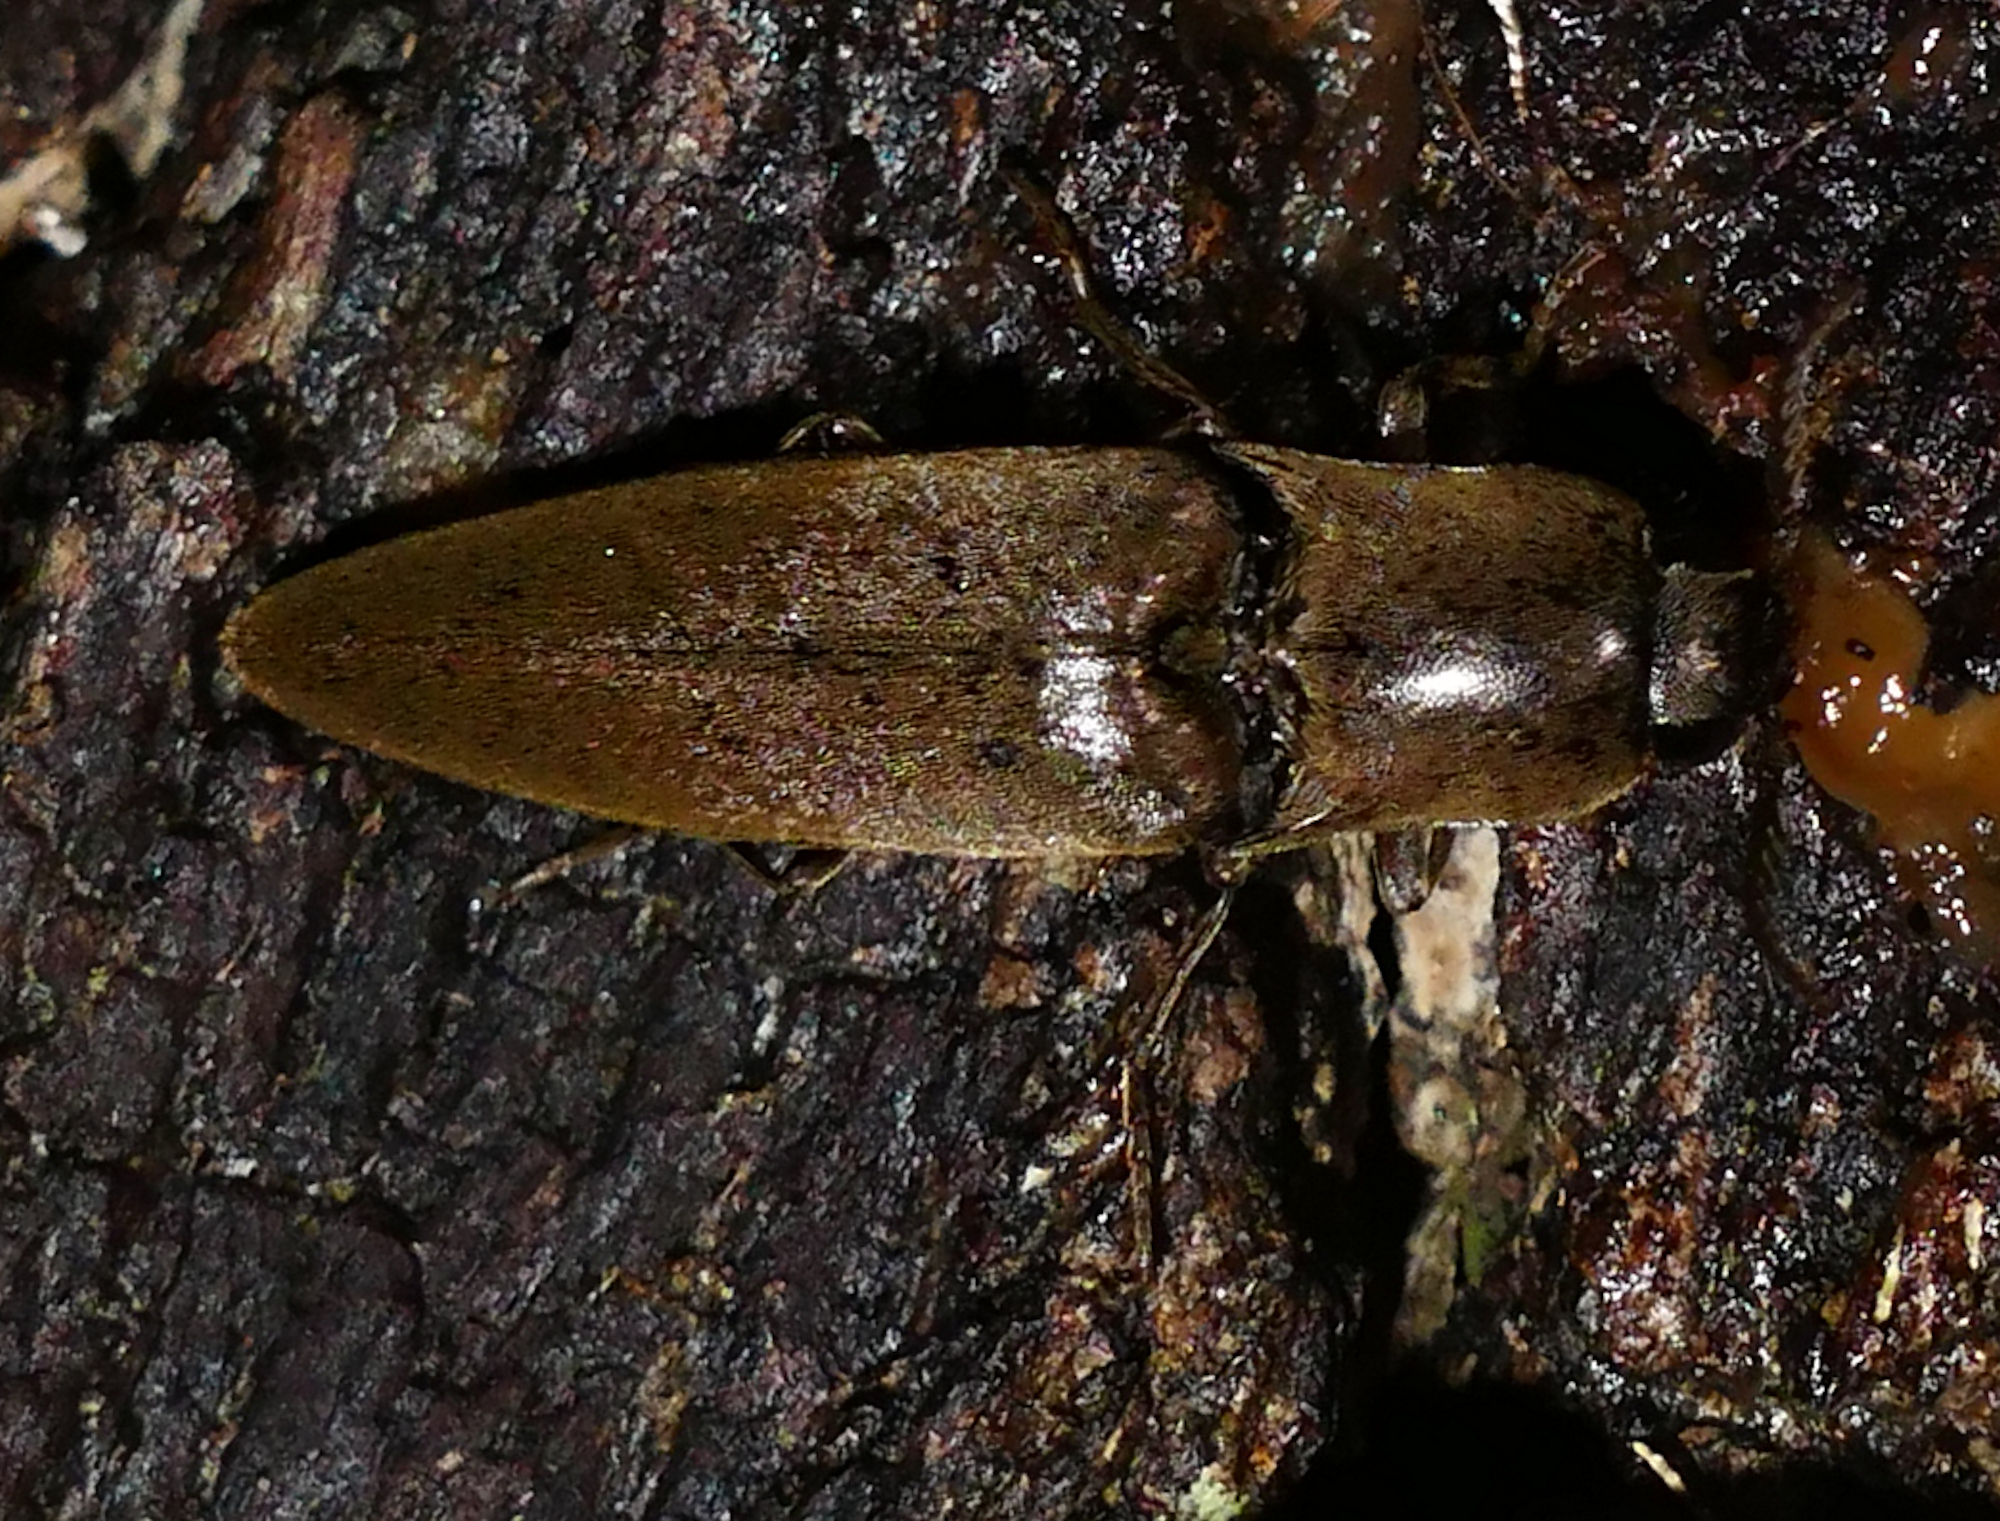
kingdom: Animalia
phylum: Arthropoda
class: Insecta
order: Coleoptera
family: Elateridae
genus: Orthostethus
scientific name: Orthostethus infuscatus
